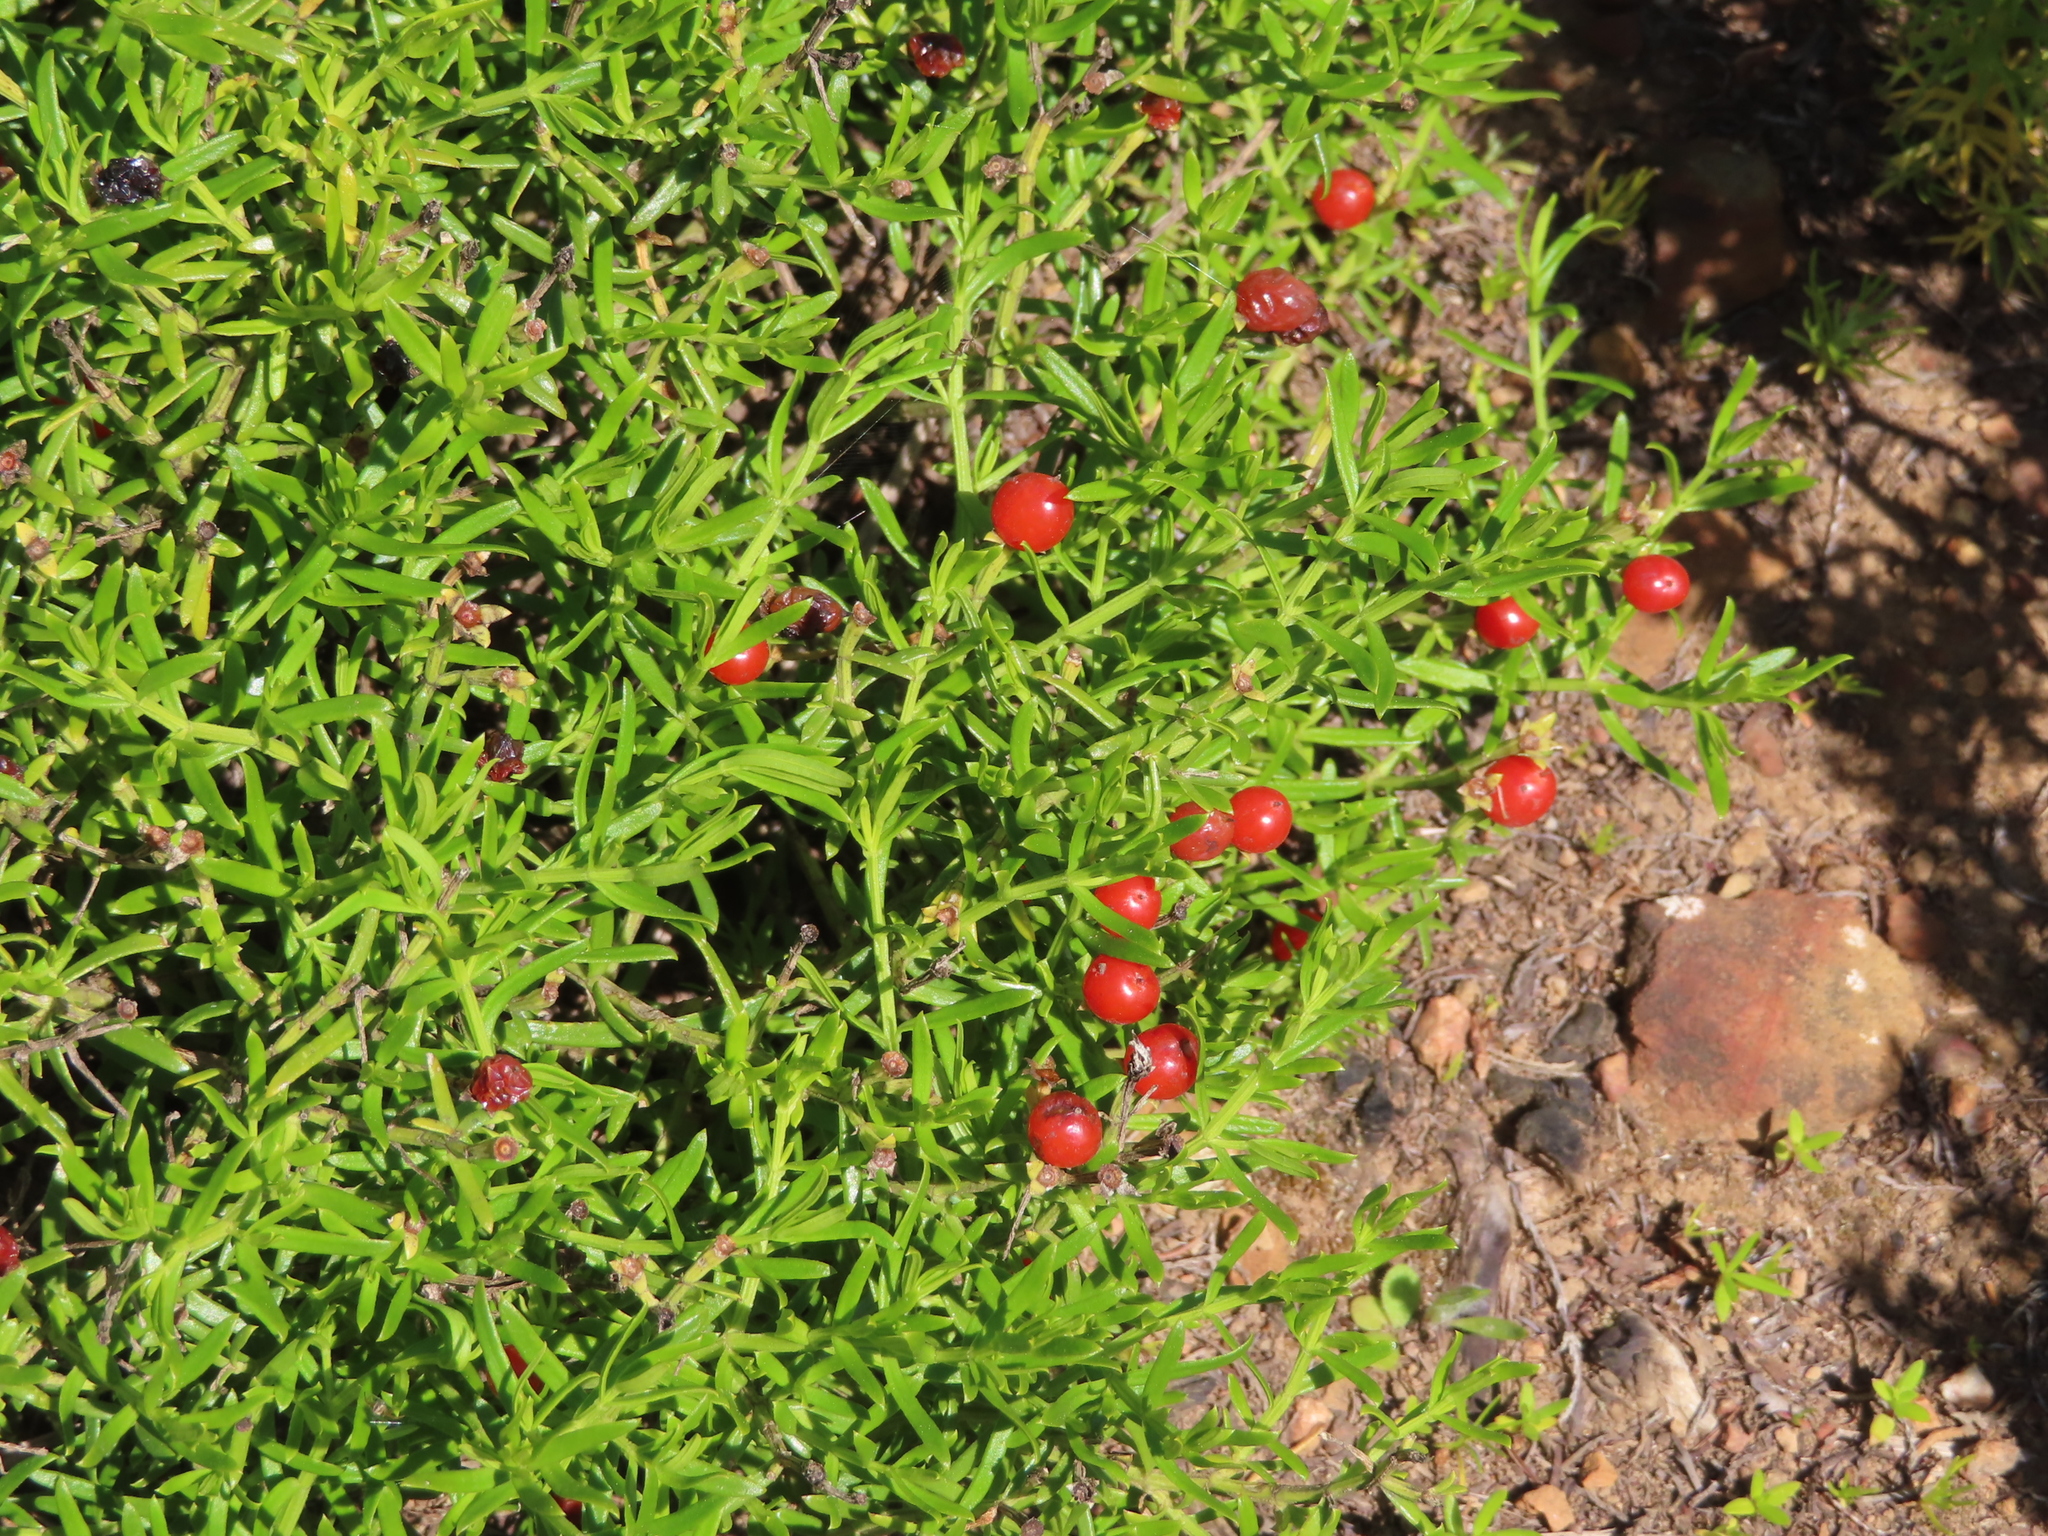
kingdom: Plantae
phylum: Tracheophyta
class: Magnoliopsida
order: Gentianales
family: Gentianaceae
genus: Chironia
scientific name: Chironia baccifera
